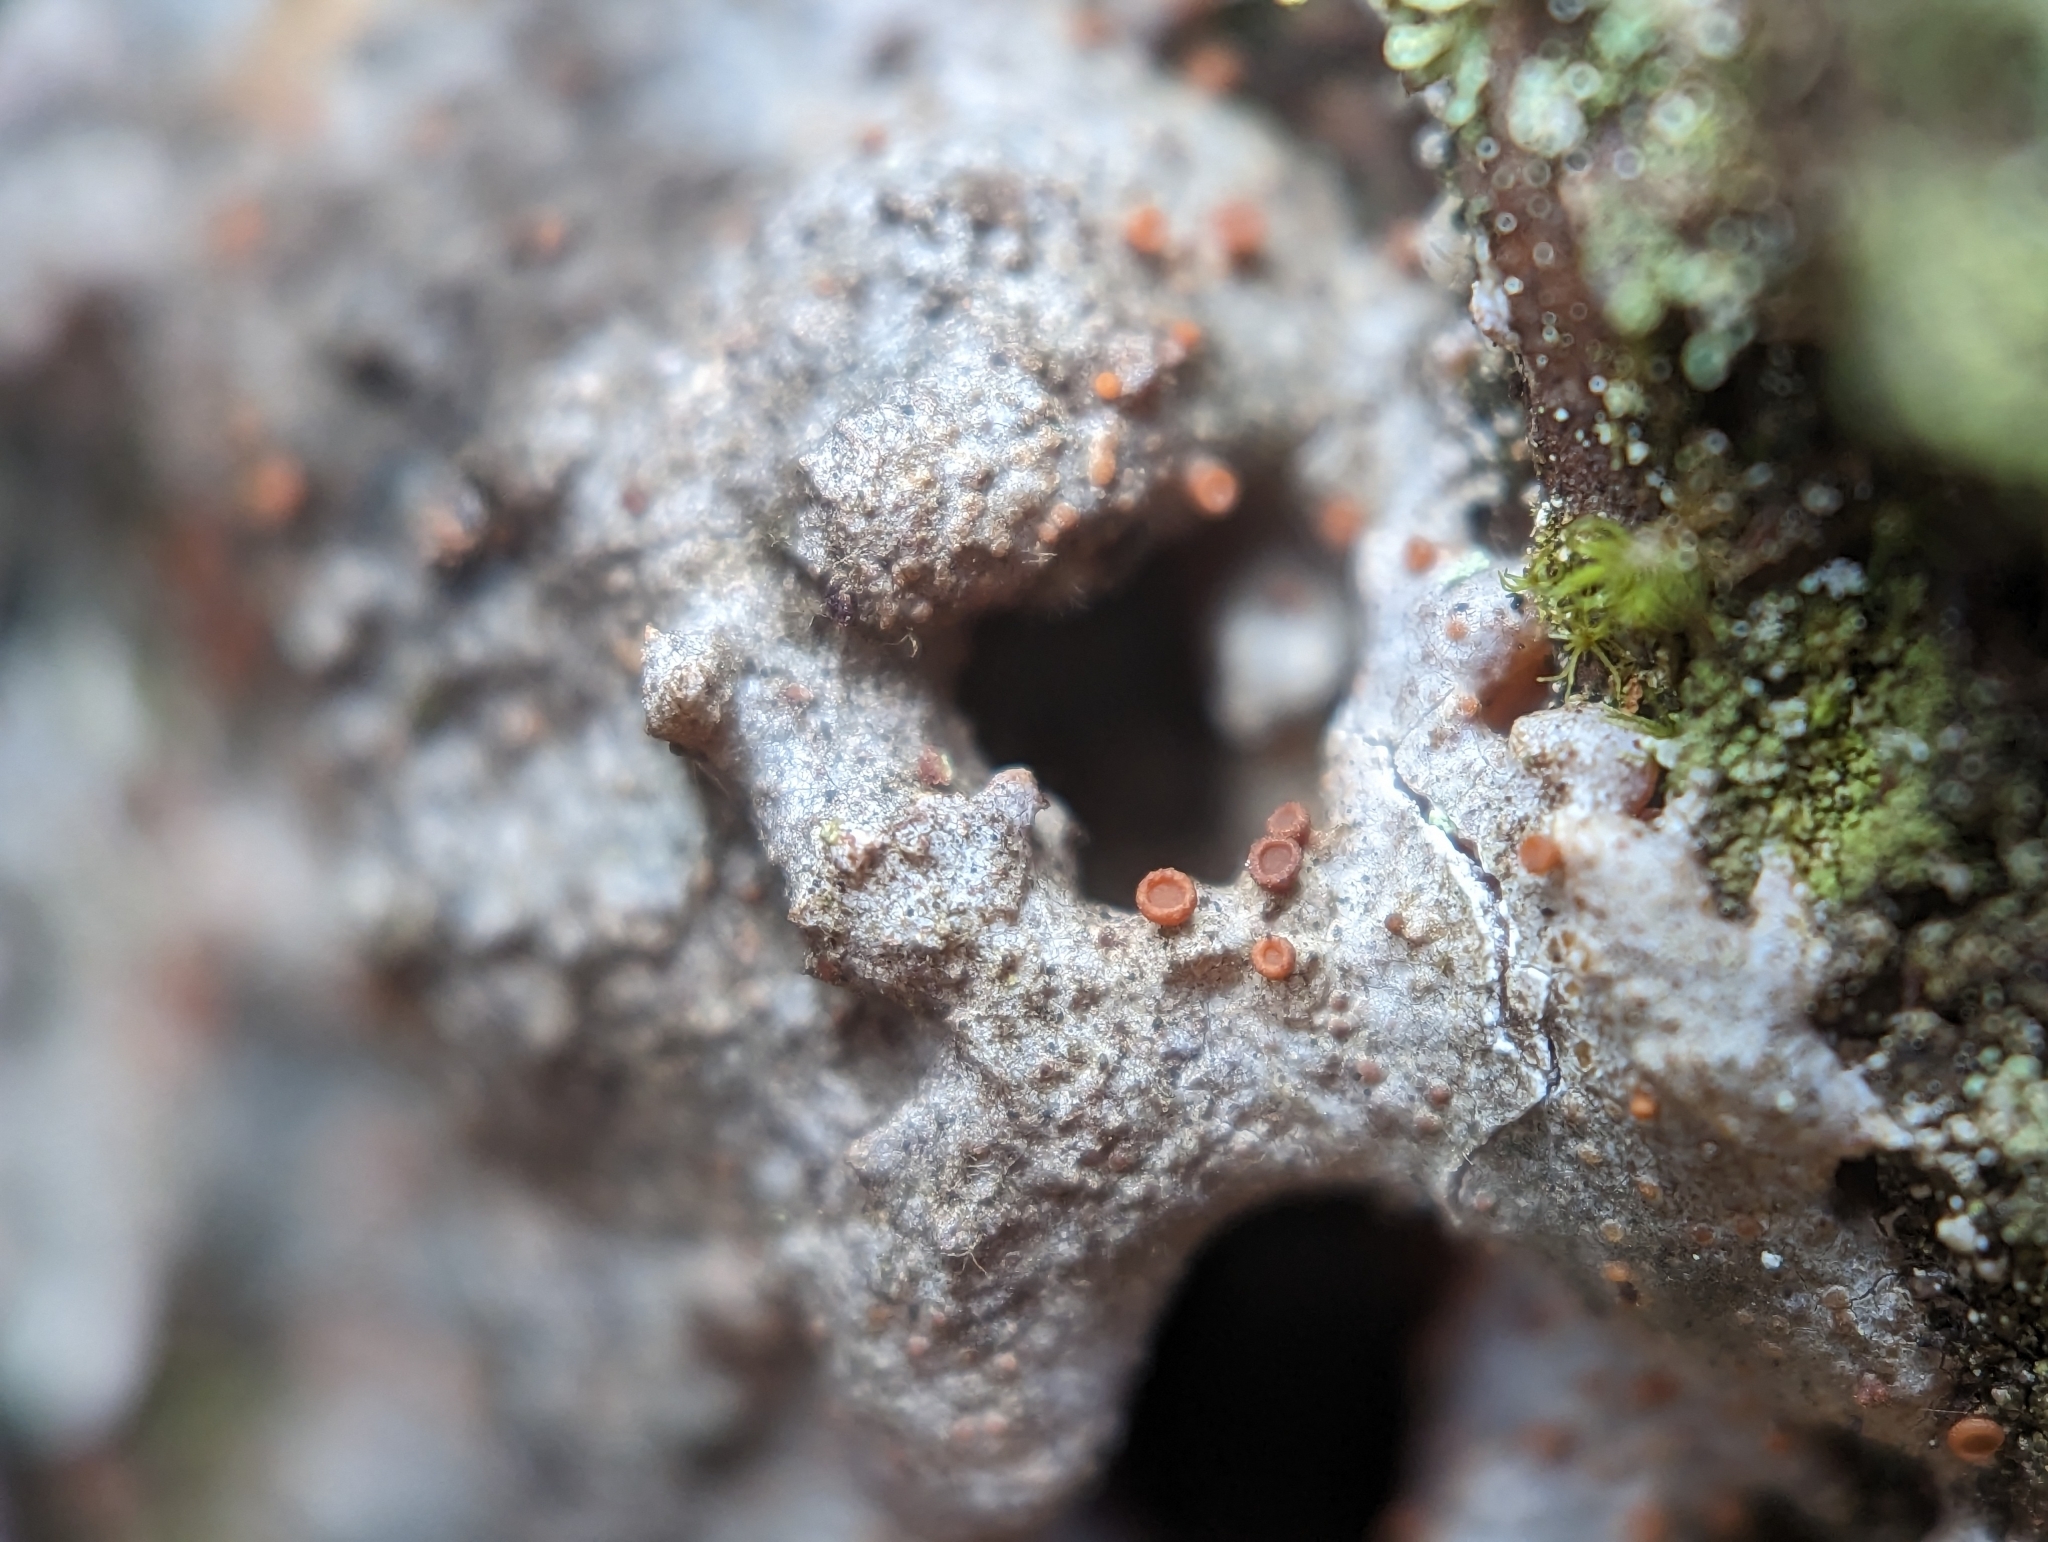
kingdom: Fungi
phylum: Ascomycota
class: Sareomycetes
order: Sareales
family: Sareaceae
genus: Sarea
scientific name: Sarea resinae
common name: Sarea lichen
